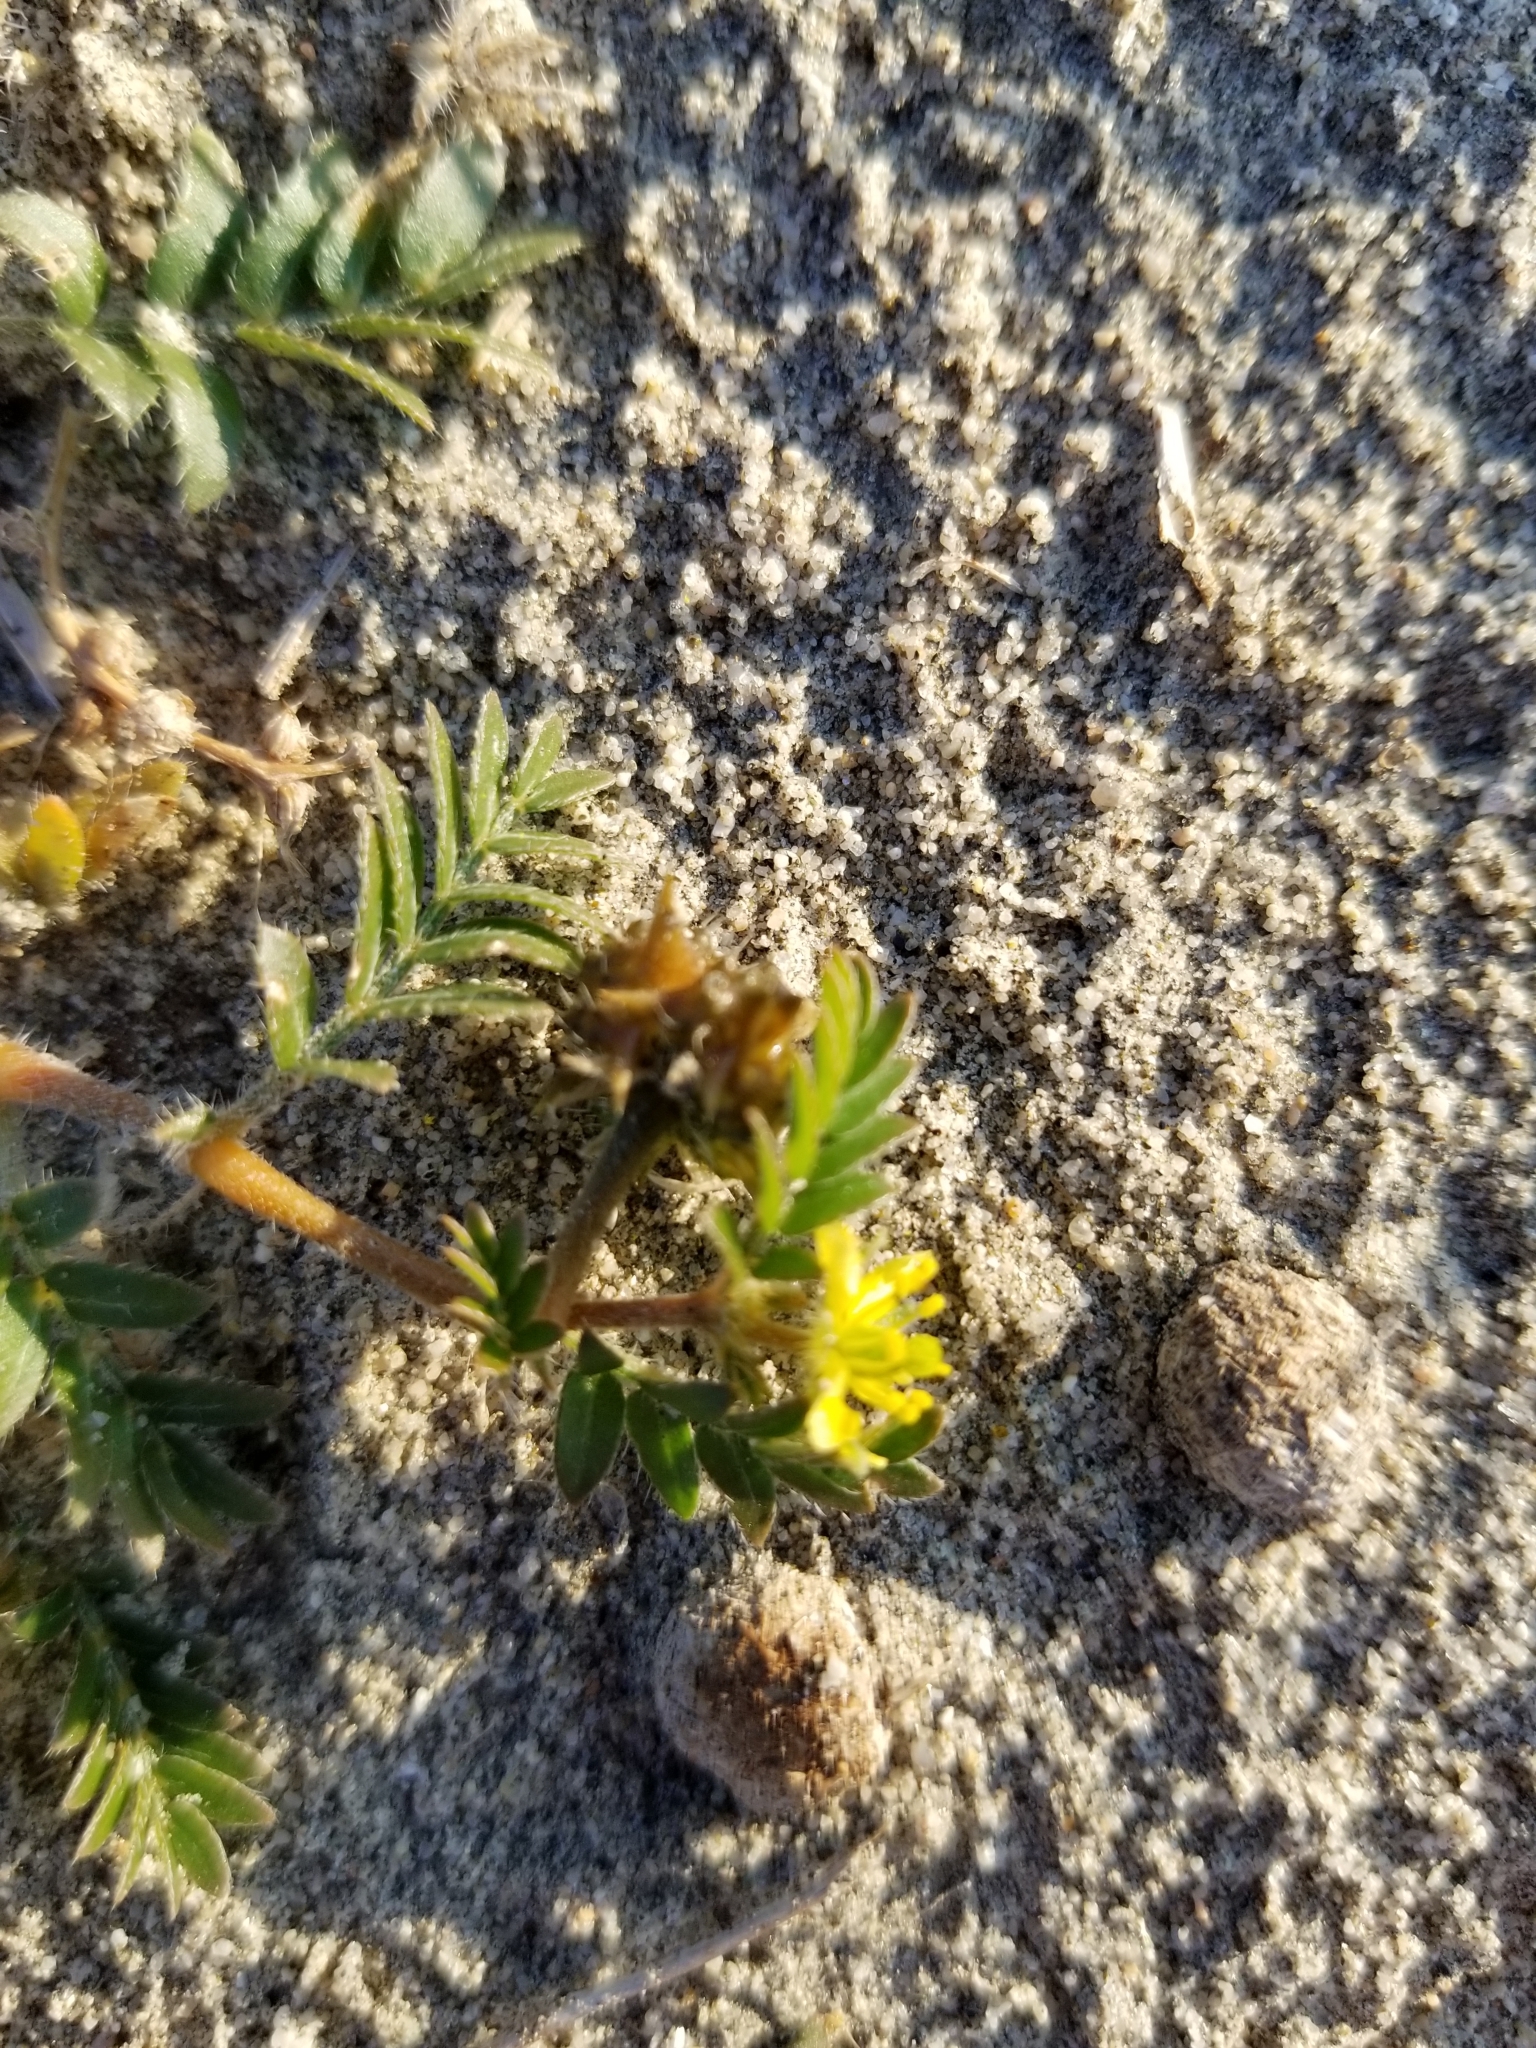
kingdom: Plantae
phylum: Tracheophyta
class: Magnoliopsida
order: Zygophyllales
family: Zygophyllaceae
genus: Tribulus
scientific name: Tribulus terrestris
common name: Puncturevine
